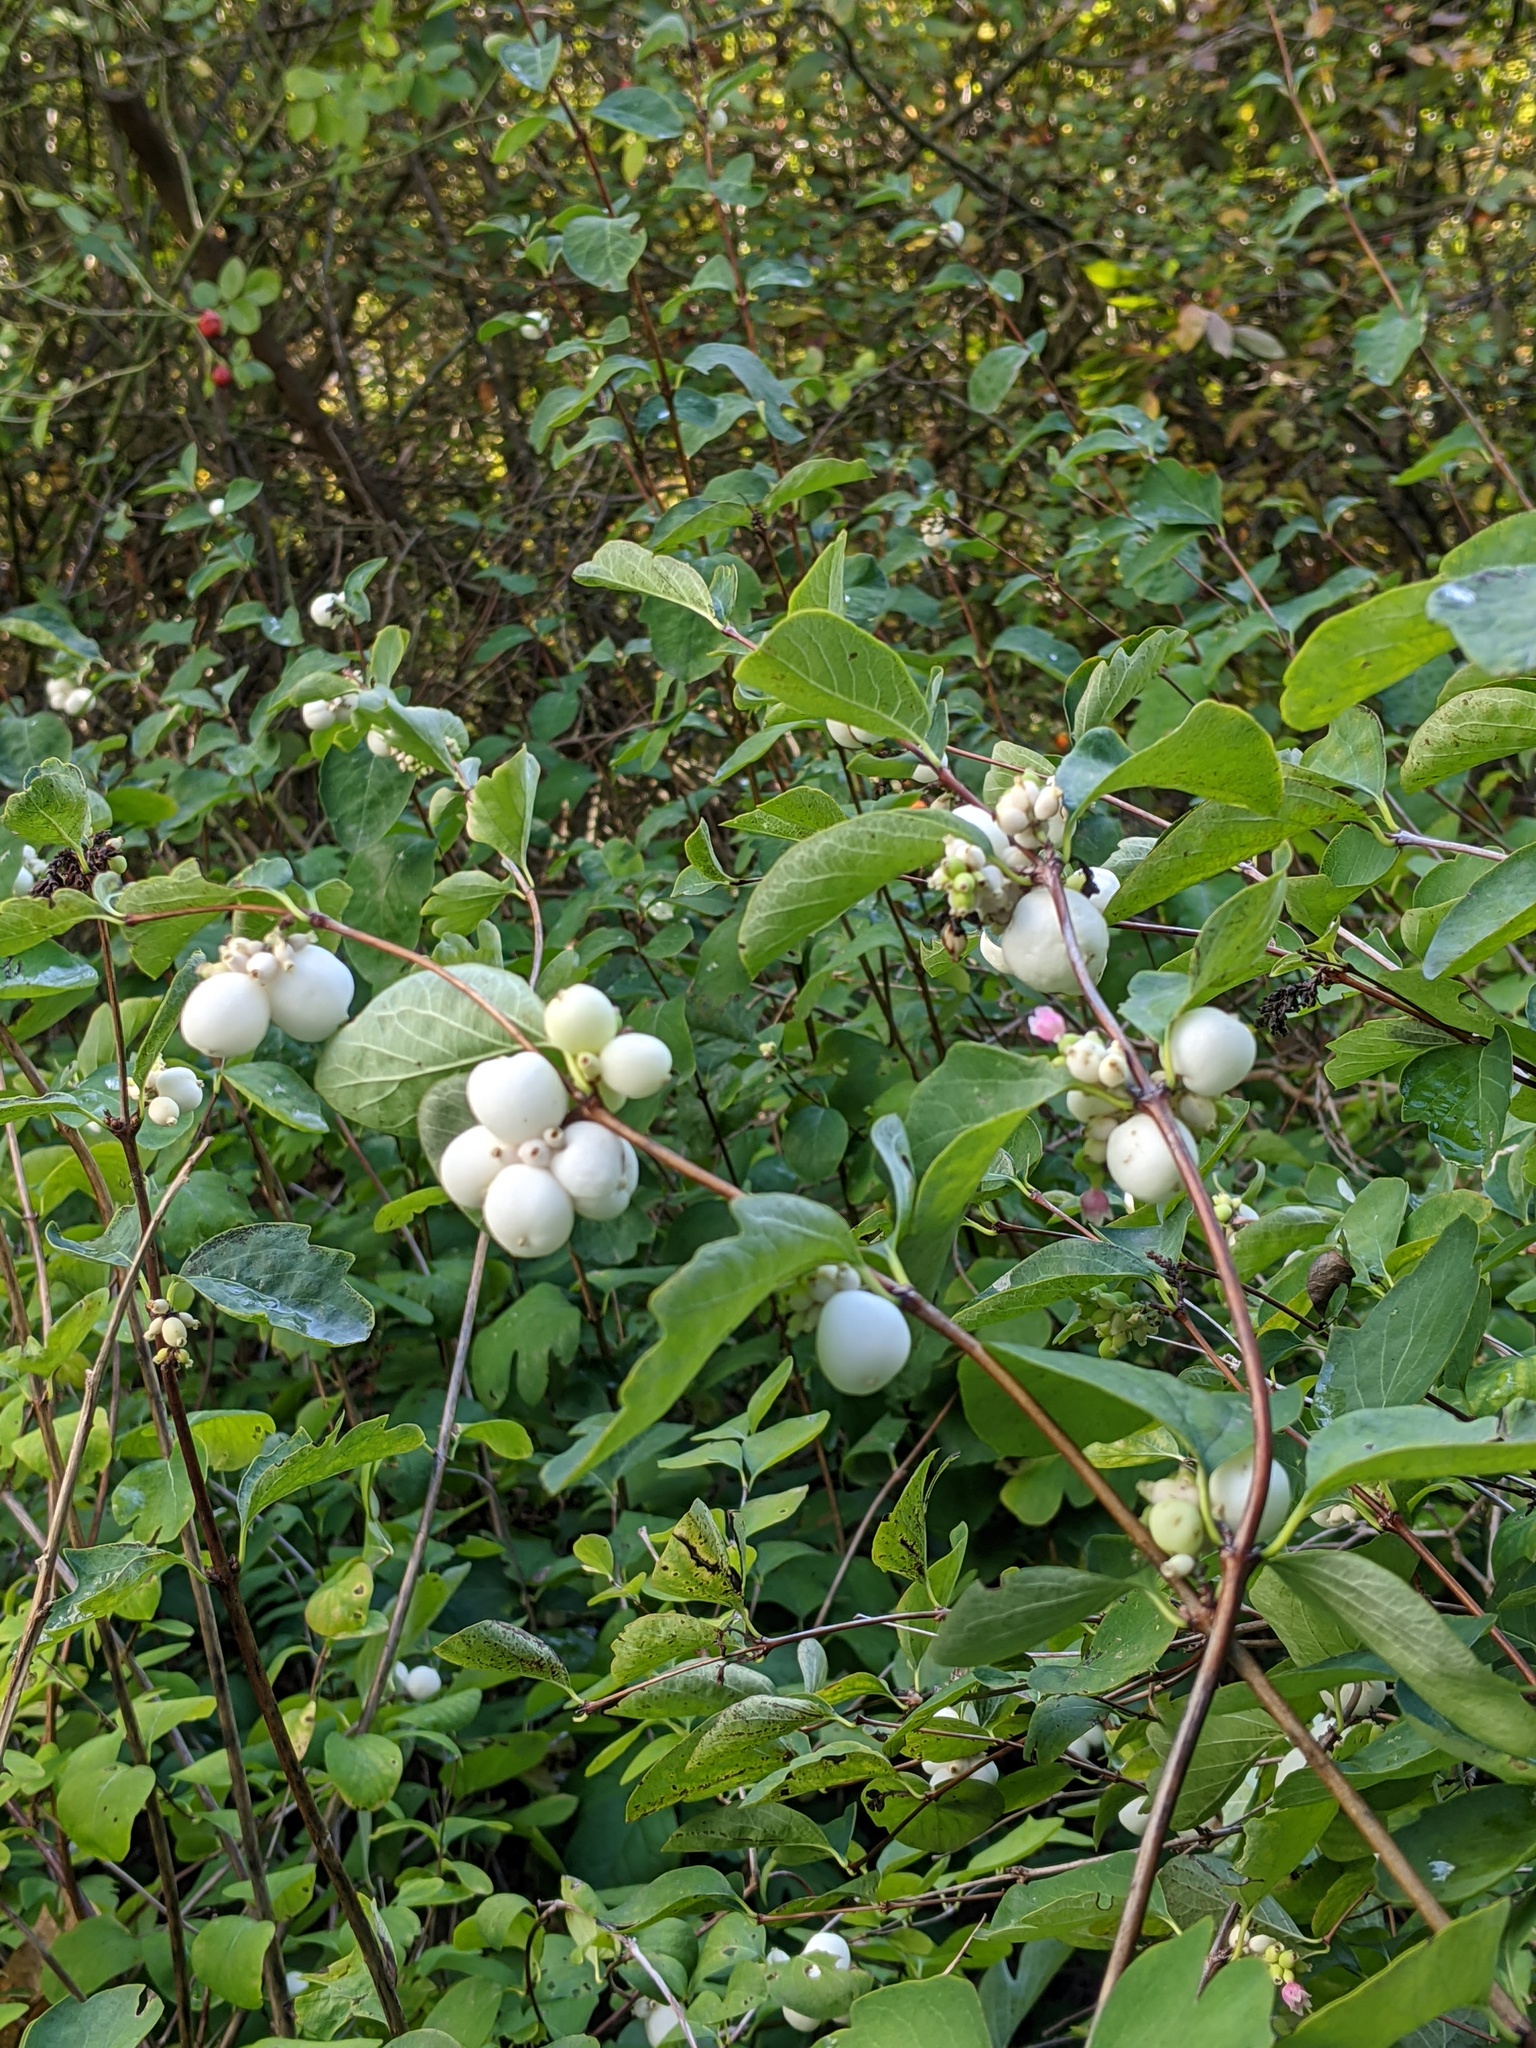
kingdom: Plantae
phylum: Tracheophyta
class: Magnoliopsida
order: Dipsacales
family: Caprifoliaceae
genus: Symphoricarpos
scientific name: Symphoricarpos albus
